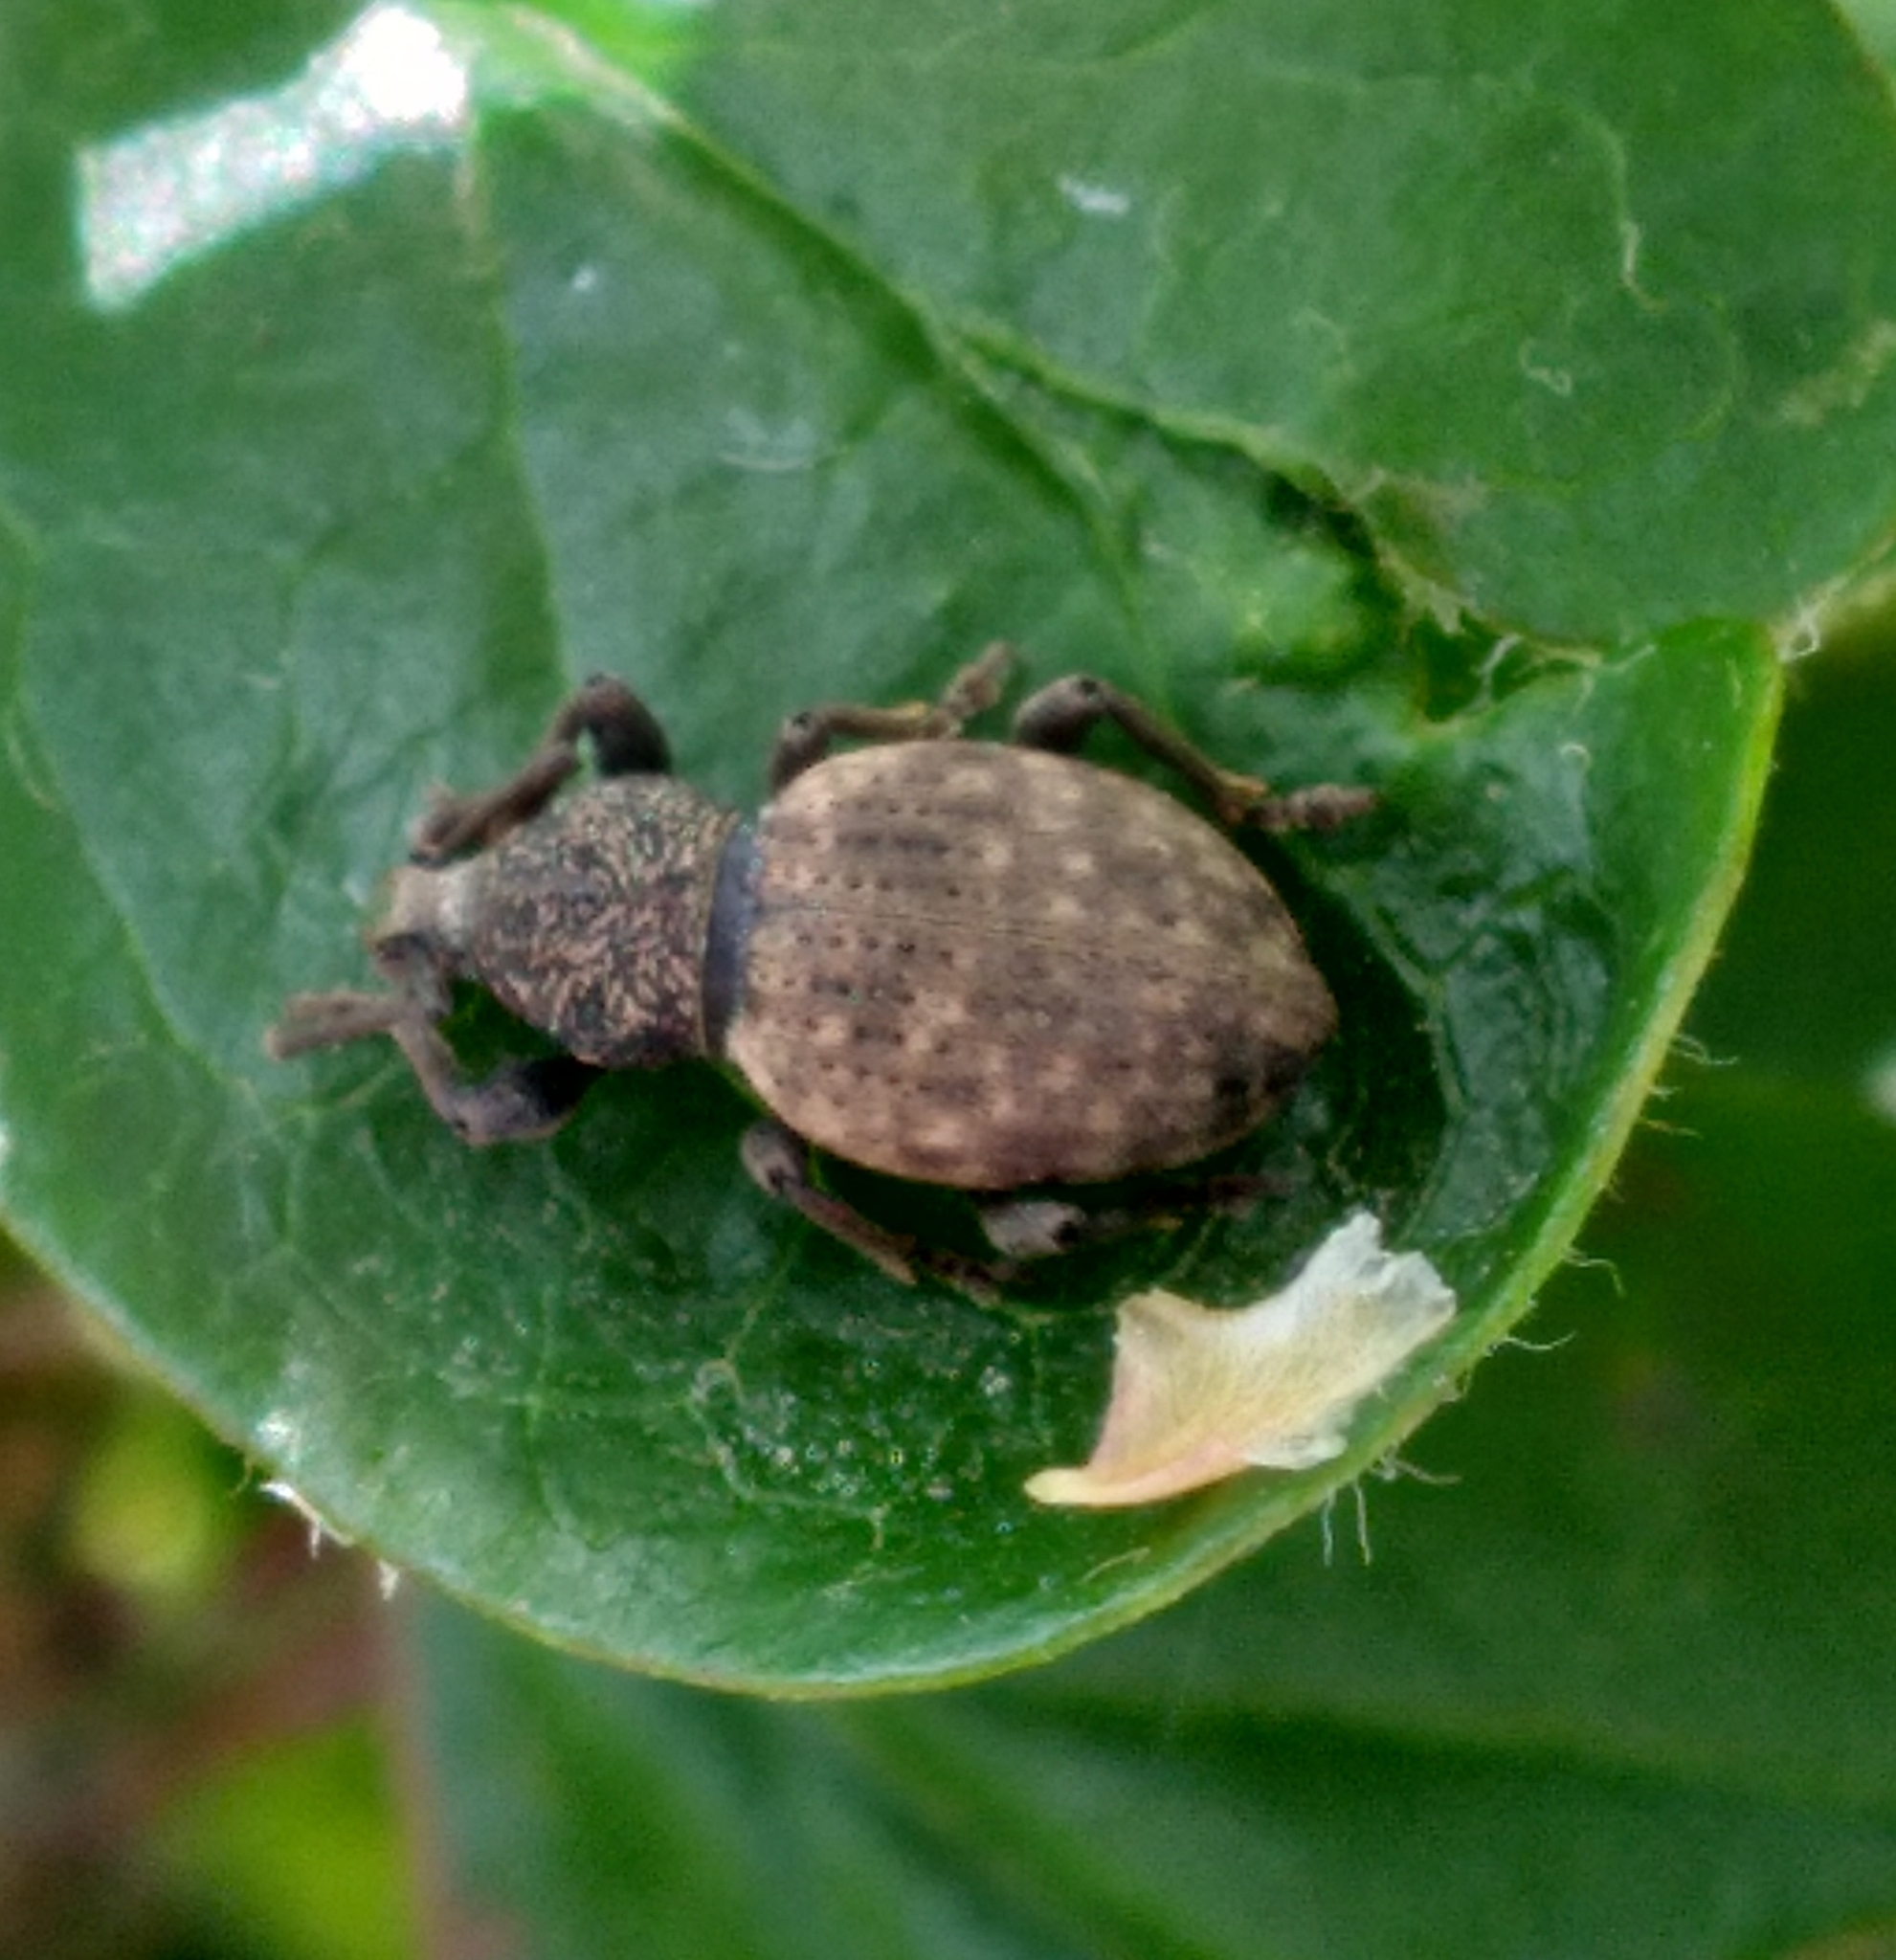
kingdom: Animalia
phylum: Arthropoda
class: Insecta
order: Coleoptera
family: Curculionidae
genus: Otiorhynchus
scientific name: Otiorhynchus raucus
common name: Weevil
